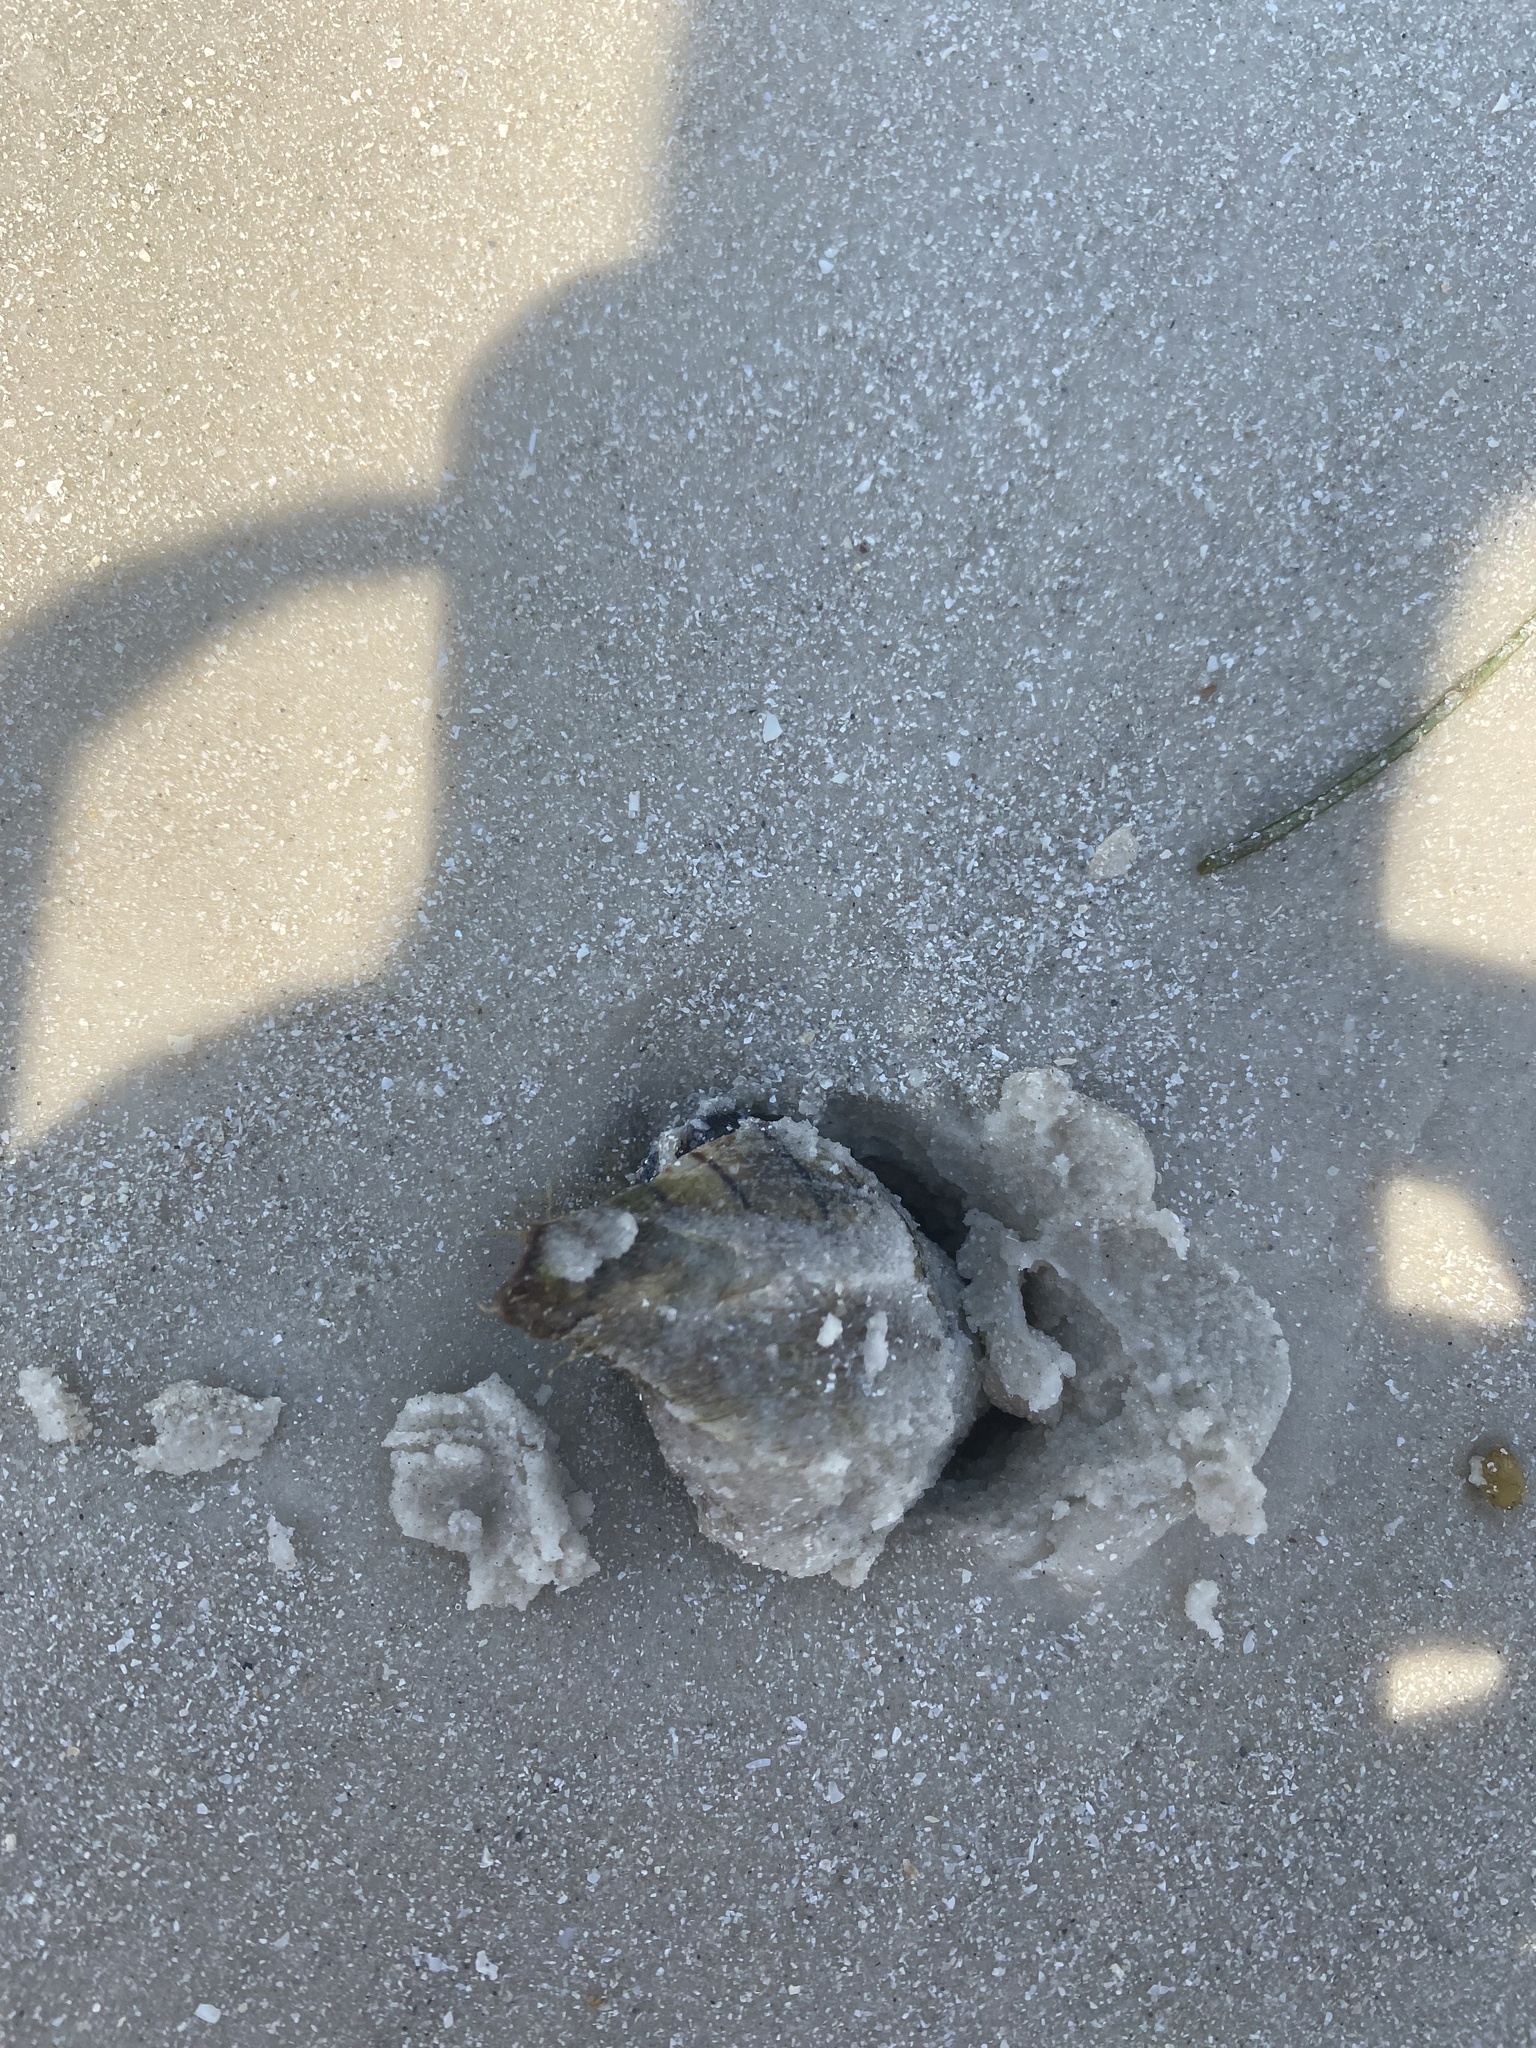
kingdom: Animalia
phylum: Mollusca
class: Gastropoda
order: Neogastropoda
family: Fasciolariidae
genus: Cinctura
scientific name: Cinctura hunteria
